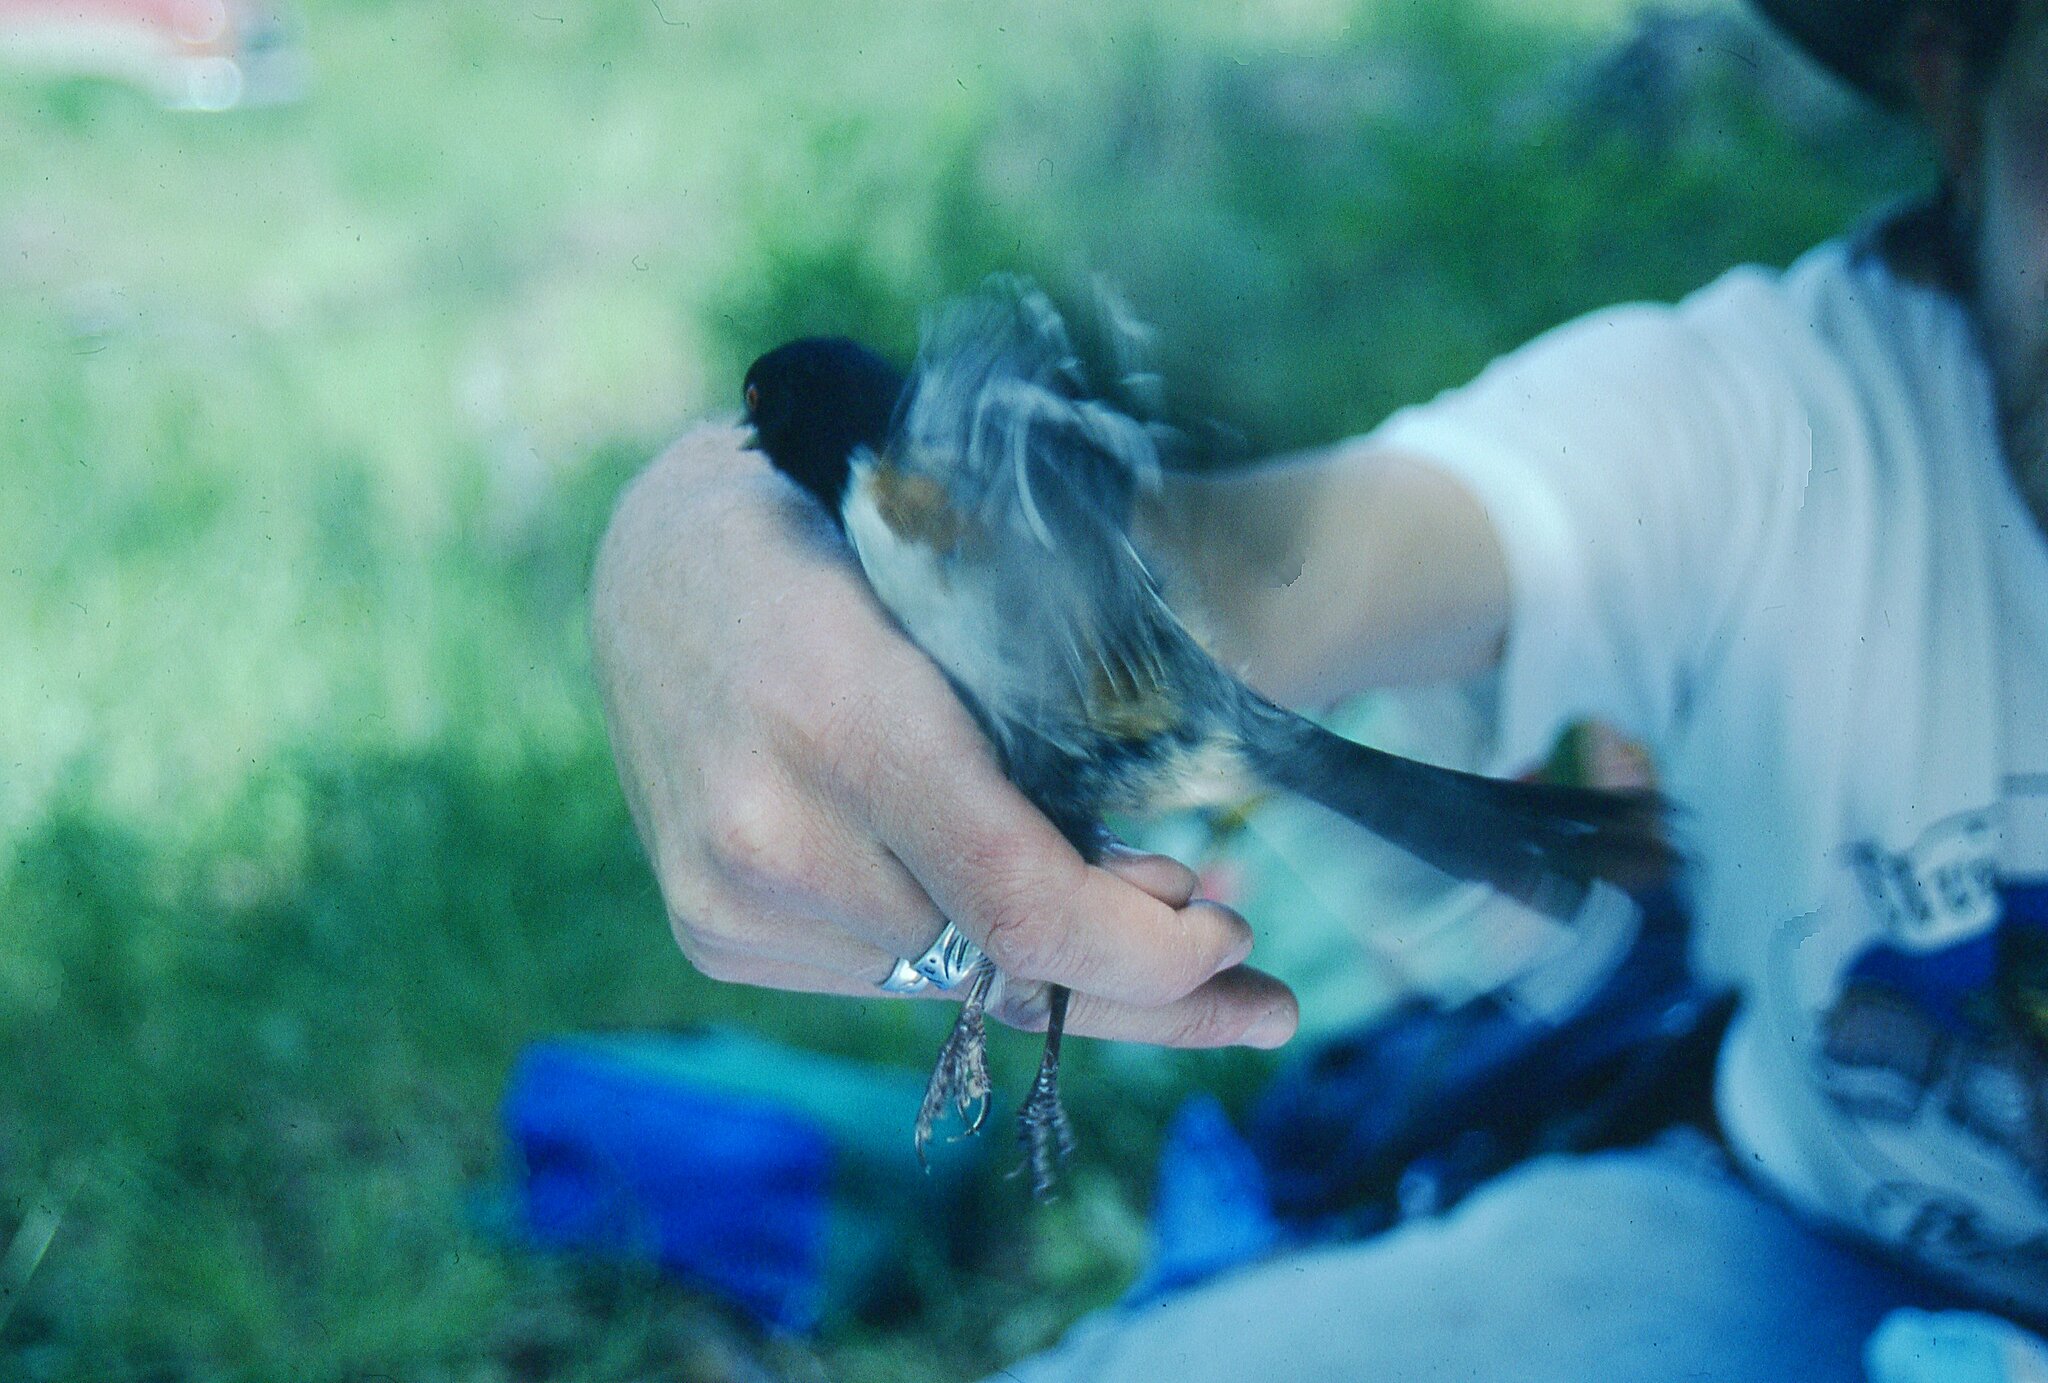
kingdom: Animalia
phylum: Chordata
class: Aves
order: Passeriformes
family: Passerellidae
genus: Pipilo
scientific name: Pipilo maculatus
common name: Spotted towhee
